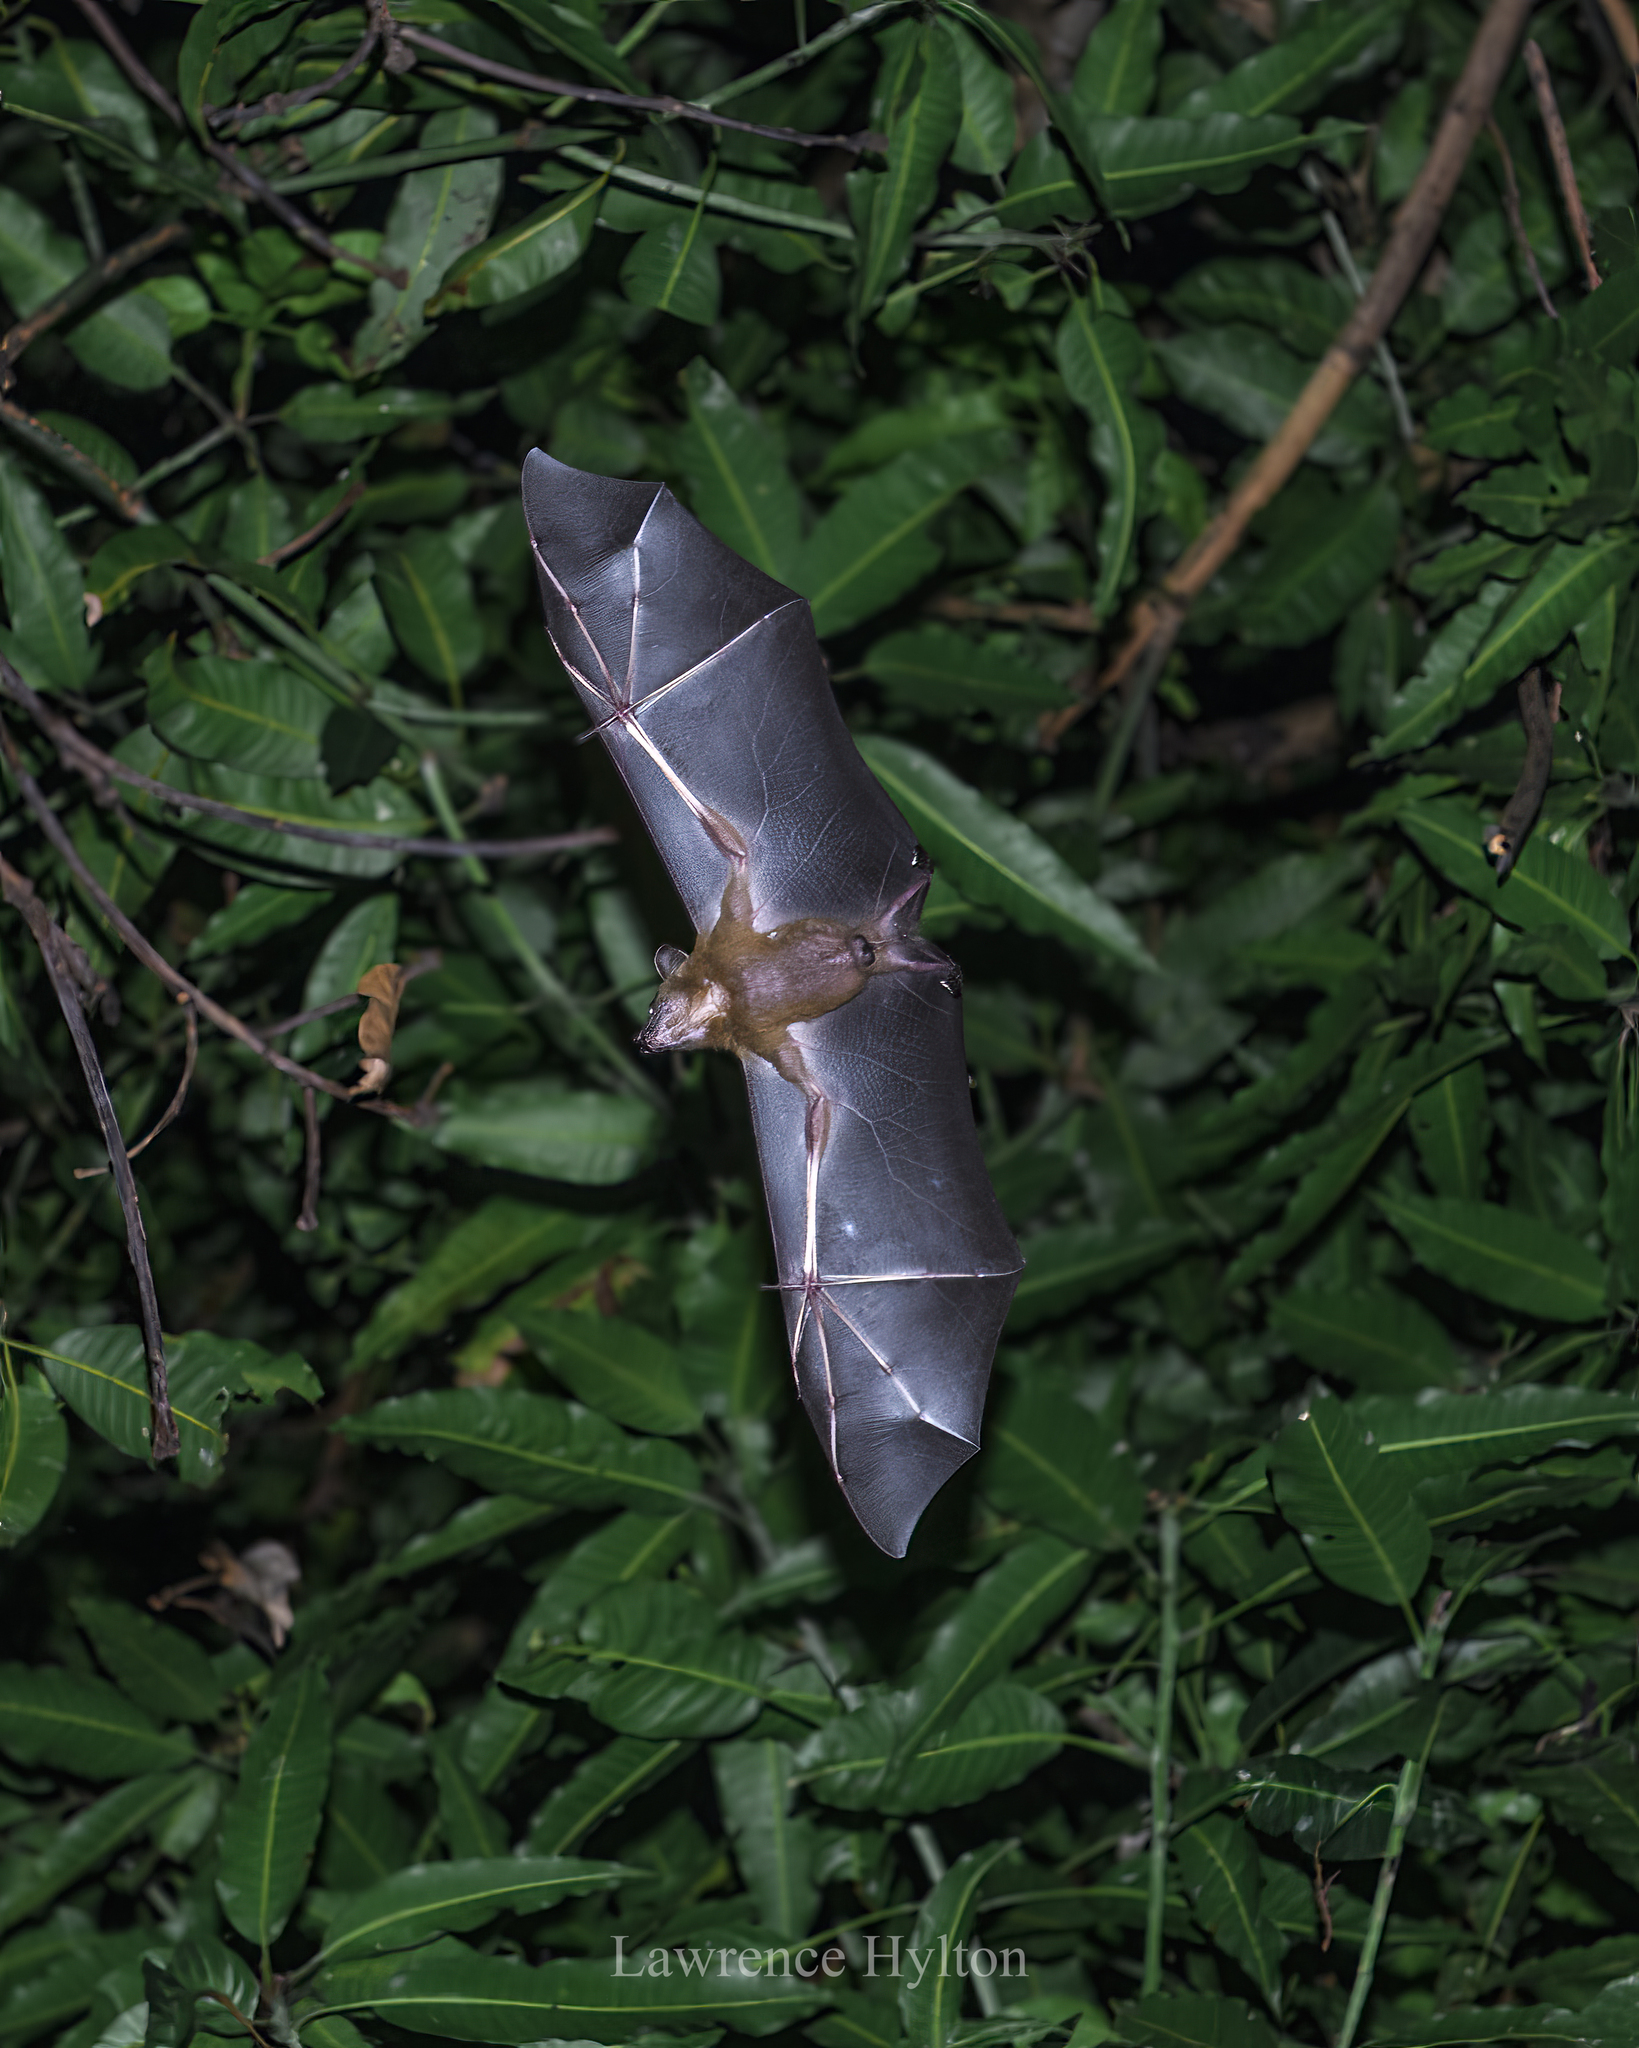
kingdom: Animalia
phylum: Chordata
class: Mammalia
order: Chiroptera
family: Pteropodidae
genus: Cynopterus
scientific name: Cynopterus sphinx
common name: Greater short-nosed fruit bat
